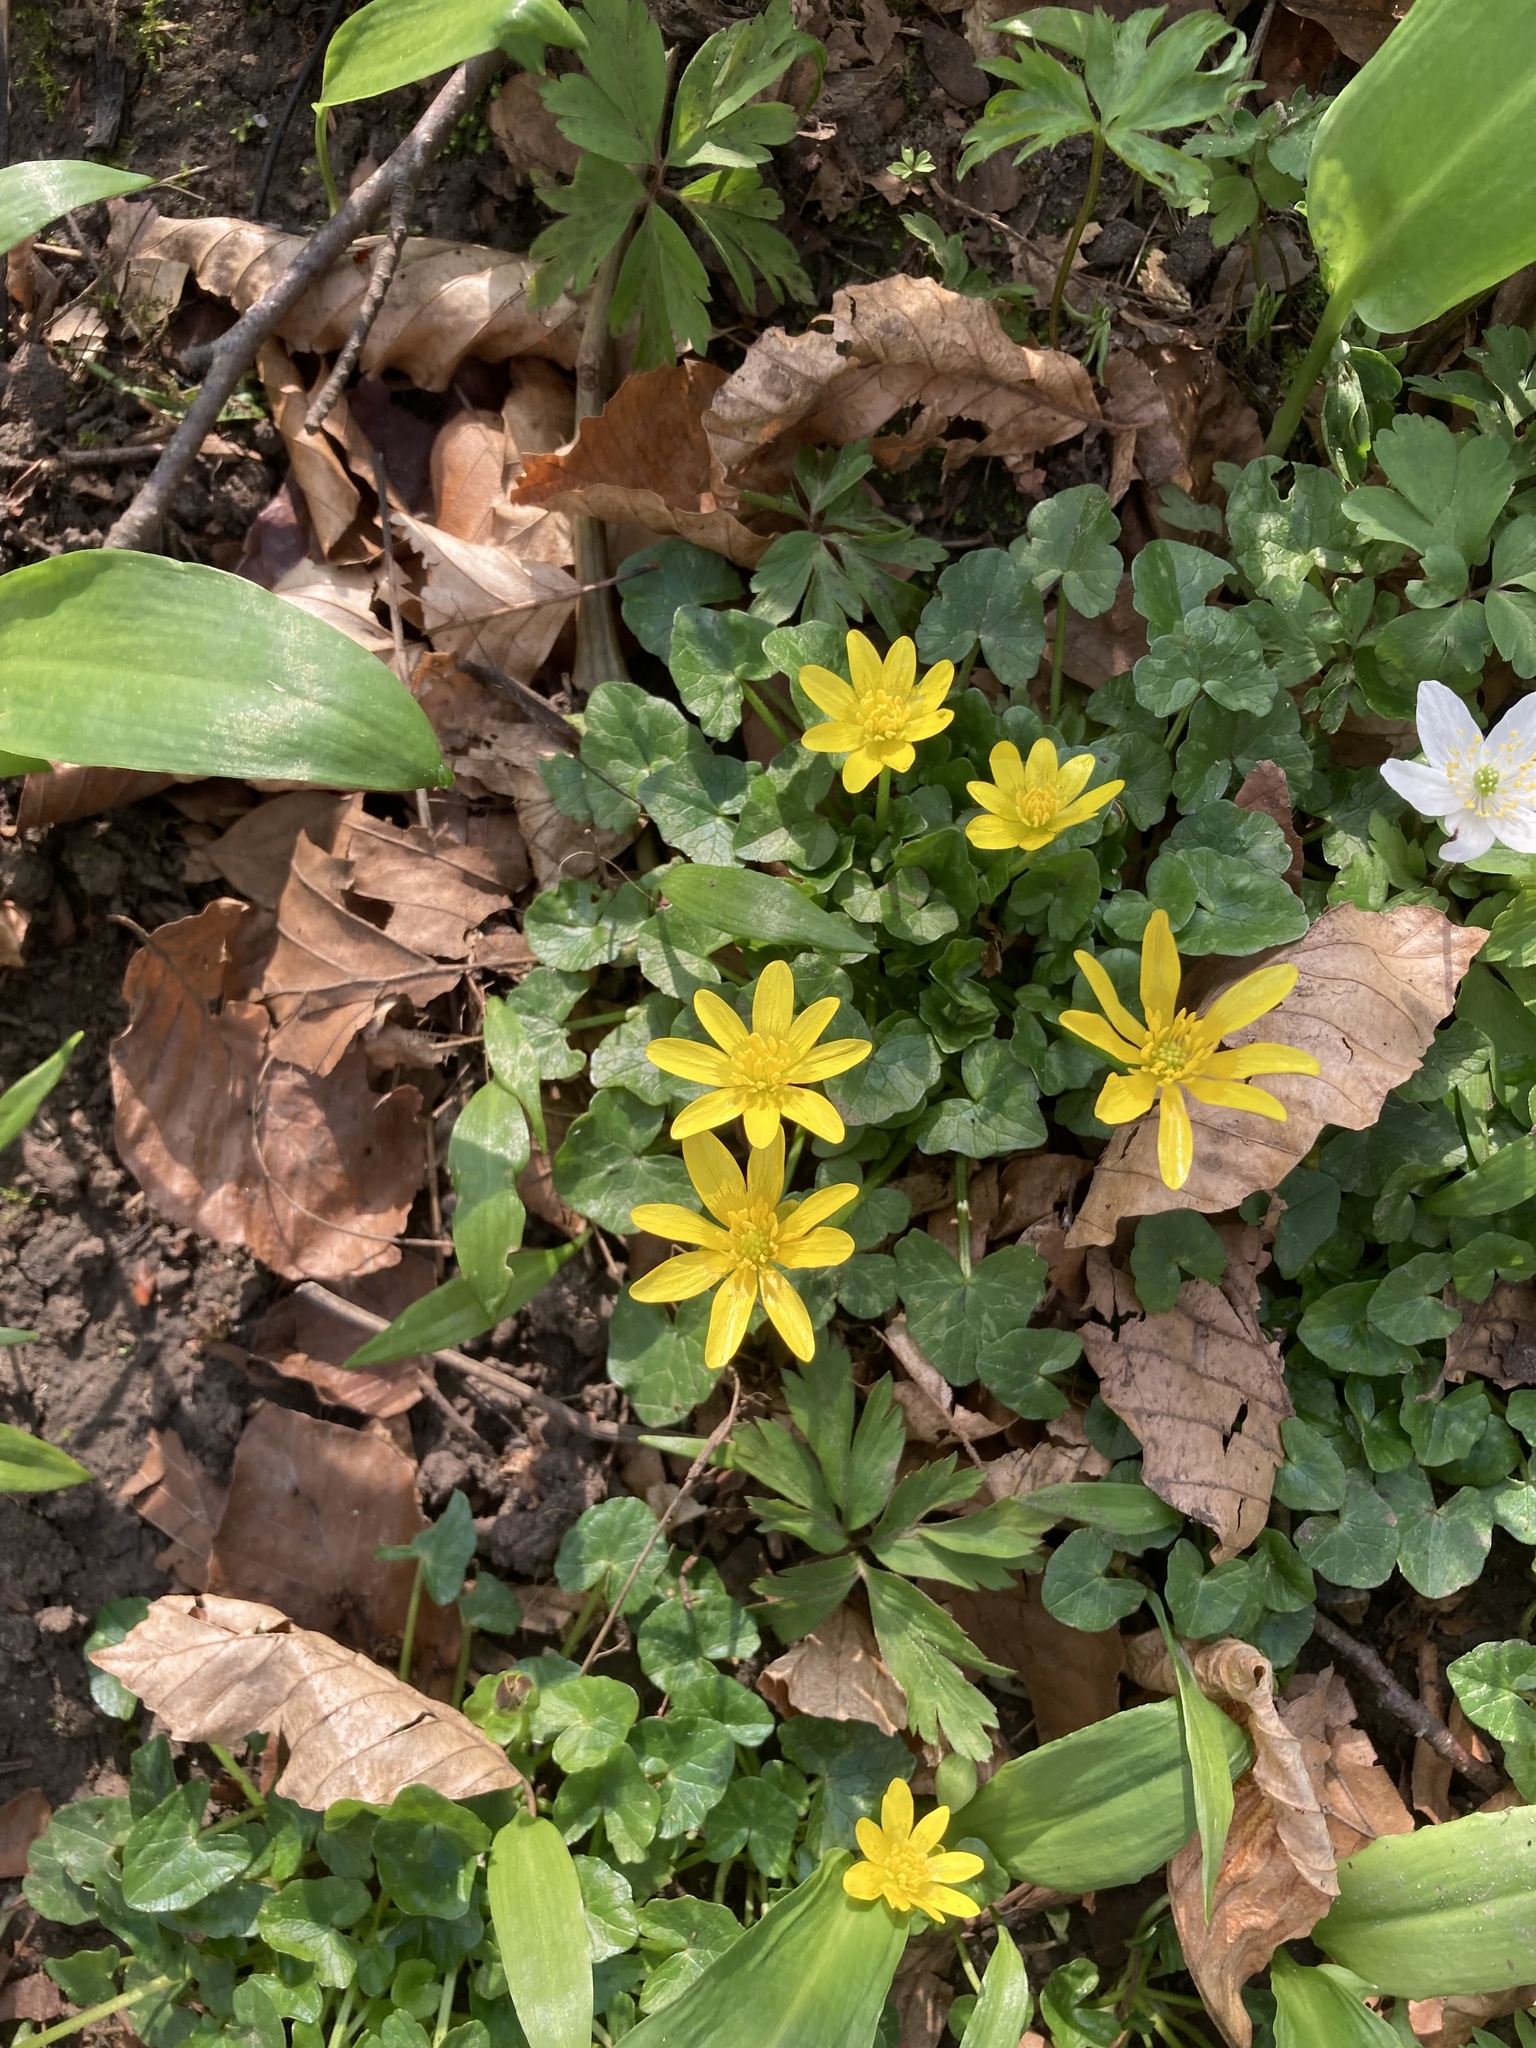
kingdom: Plantae
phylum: Tracheophyta
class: Magnoliopsida
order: Ranunculales
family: Ranunculaceae
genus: Ficaria
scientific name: Ficaria verna
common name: Lesser celandine
